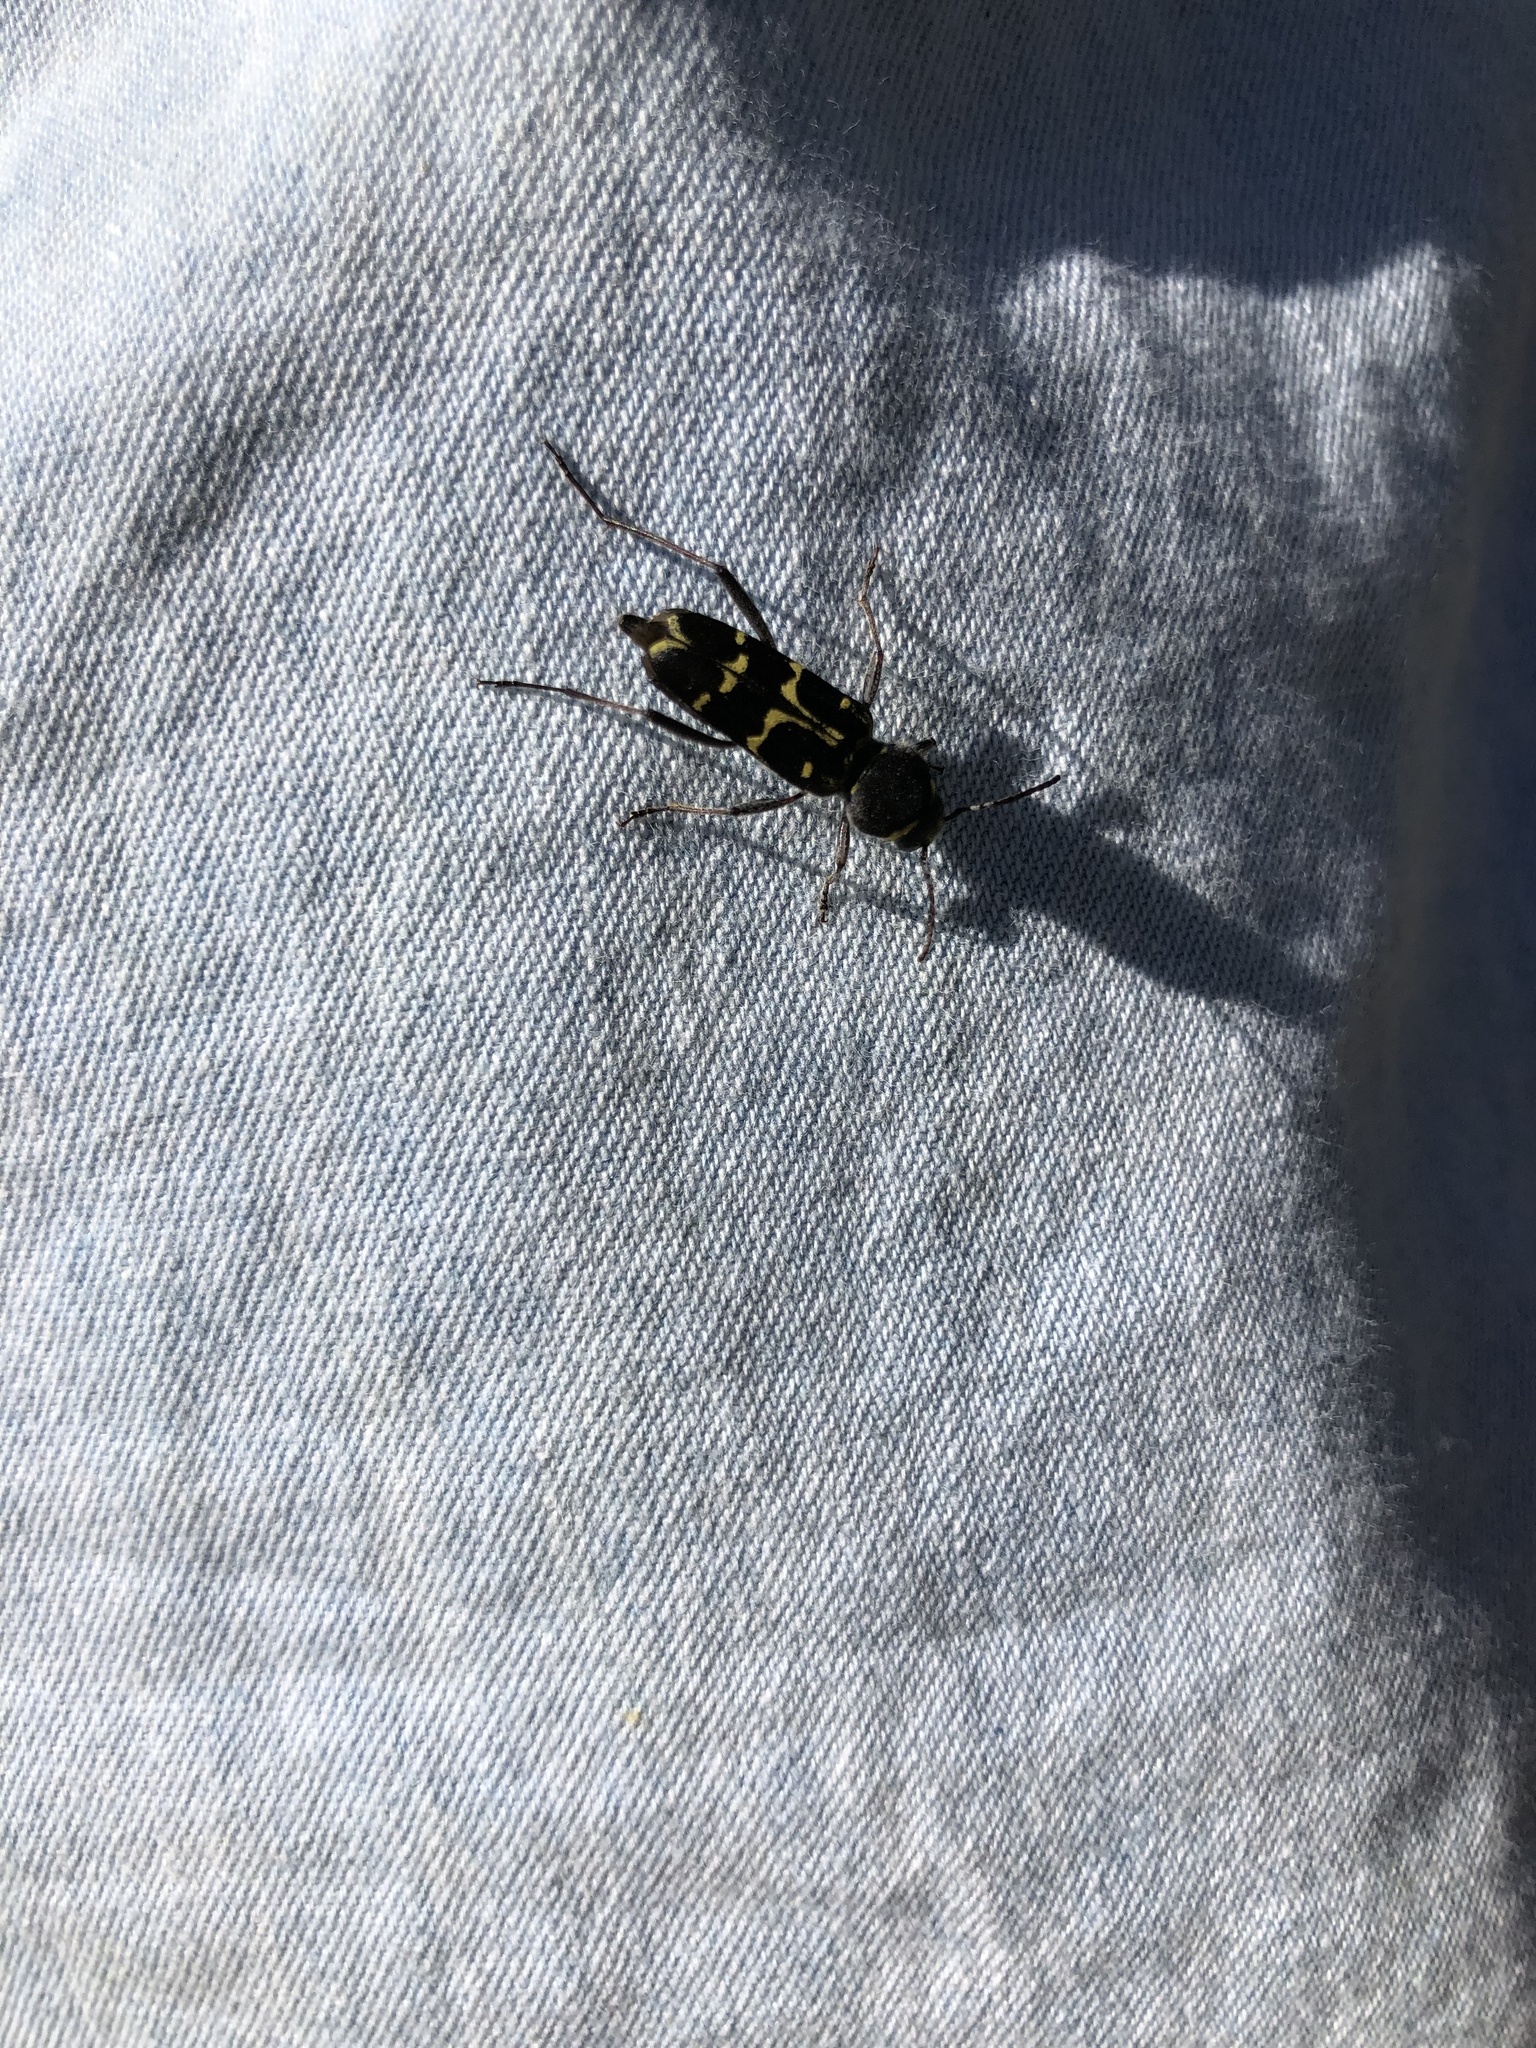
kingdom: Animalia
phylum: Arthropoda
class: Insecta
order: Coleoptera
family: Cerambycidae
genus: Xylotrechus
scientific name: Xylotrechus undulatus
